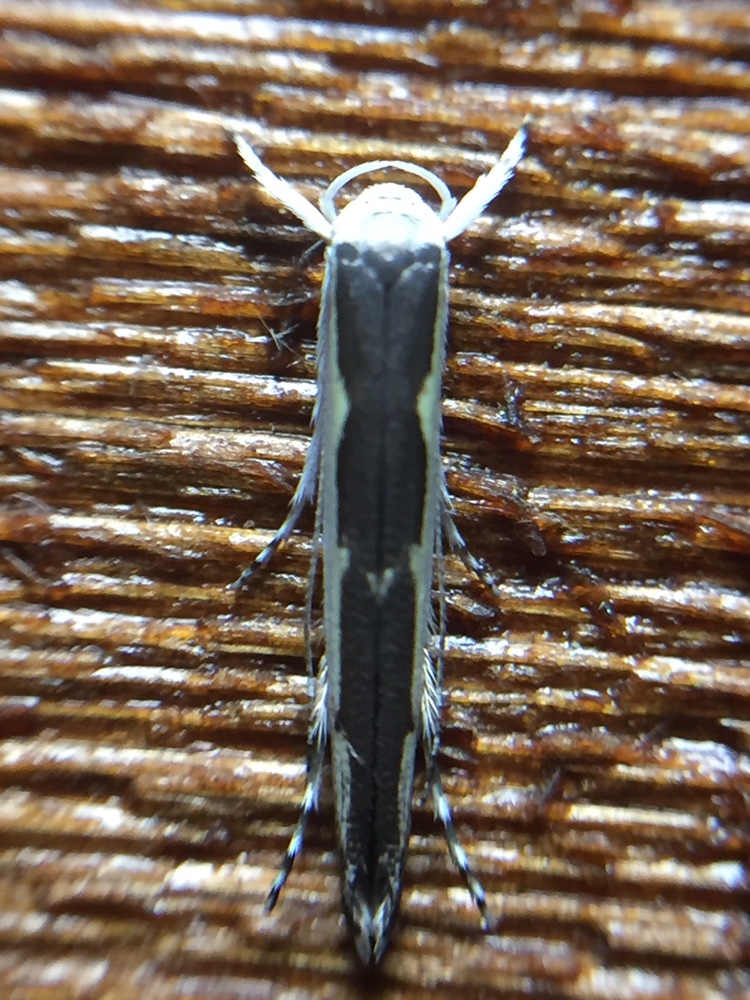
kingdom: Animalia
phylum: Arthropoda
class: Insecta
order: Lepidoptera
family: Roeslerstammiidae
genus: Vanicela
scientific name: Vanicela disjunctella
